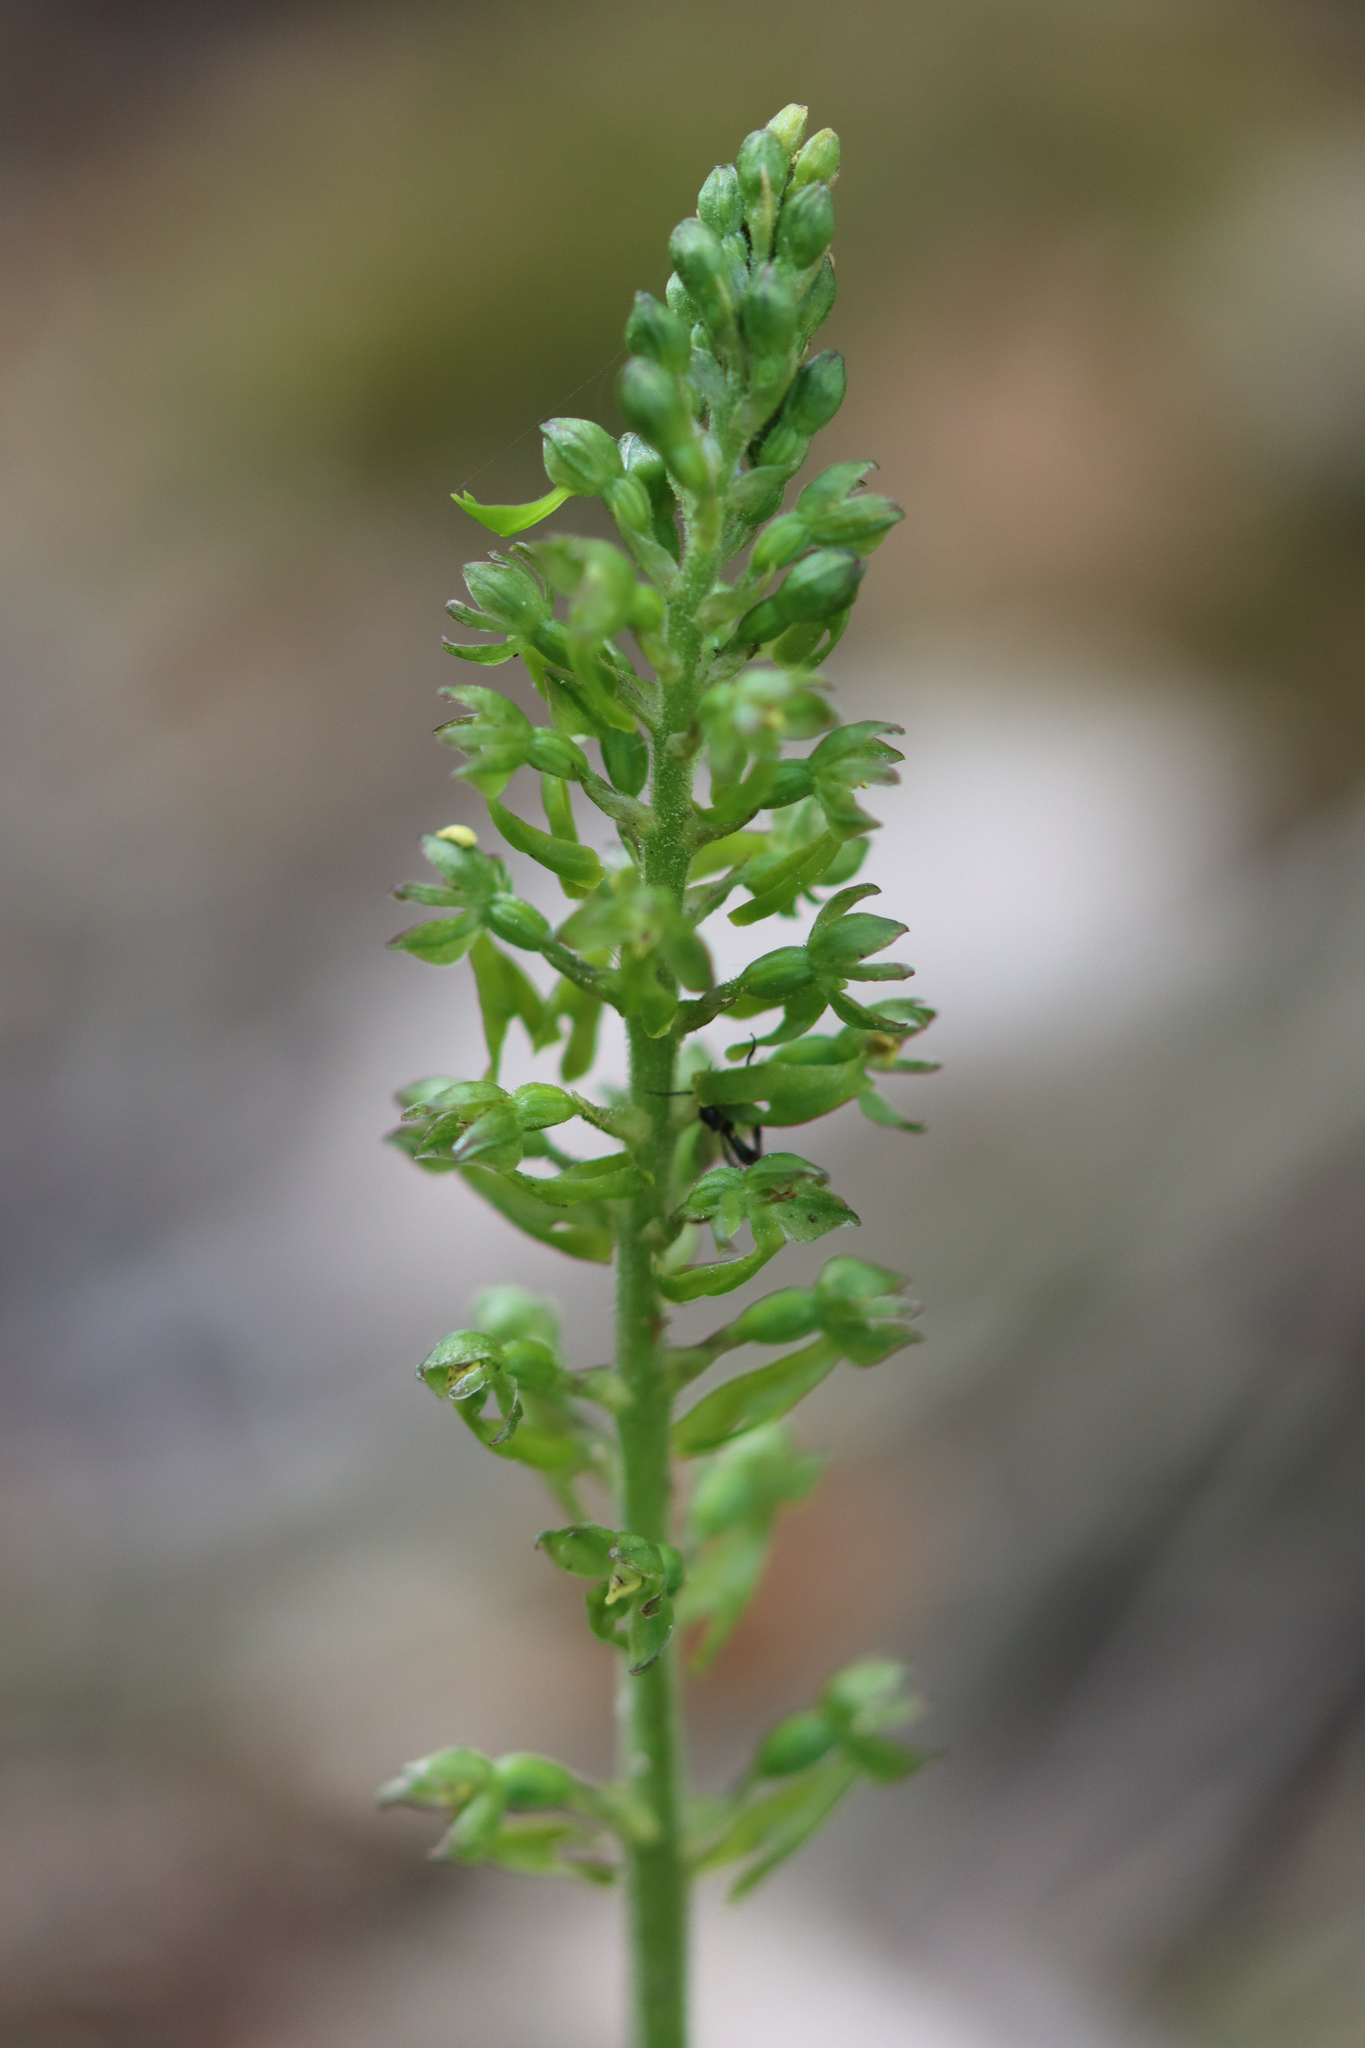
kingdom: Plantae
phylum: Tracheophyta
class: Liliopsida
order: Asparagales
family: Orchidaceae
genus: Neottia
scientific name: Neottia ovata
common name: Common twayblade
